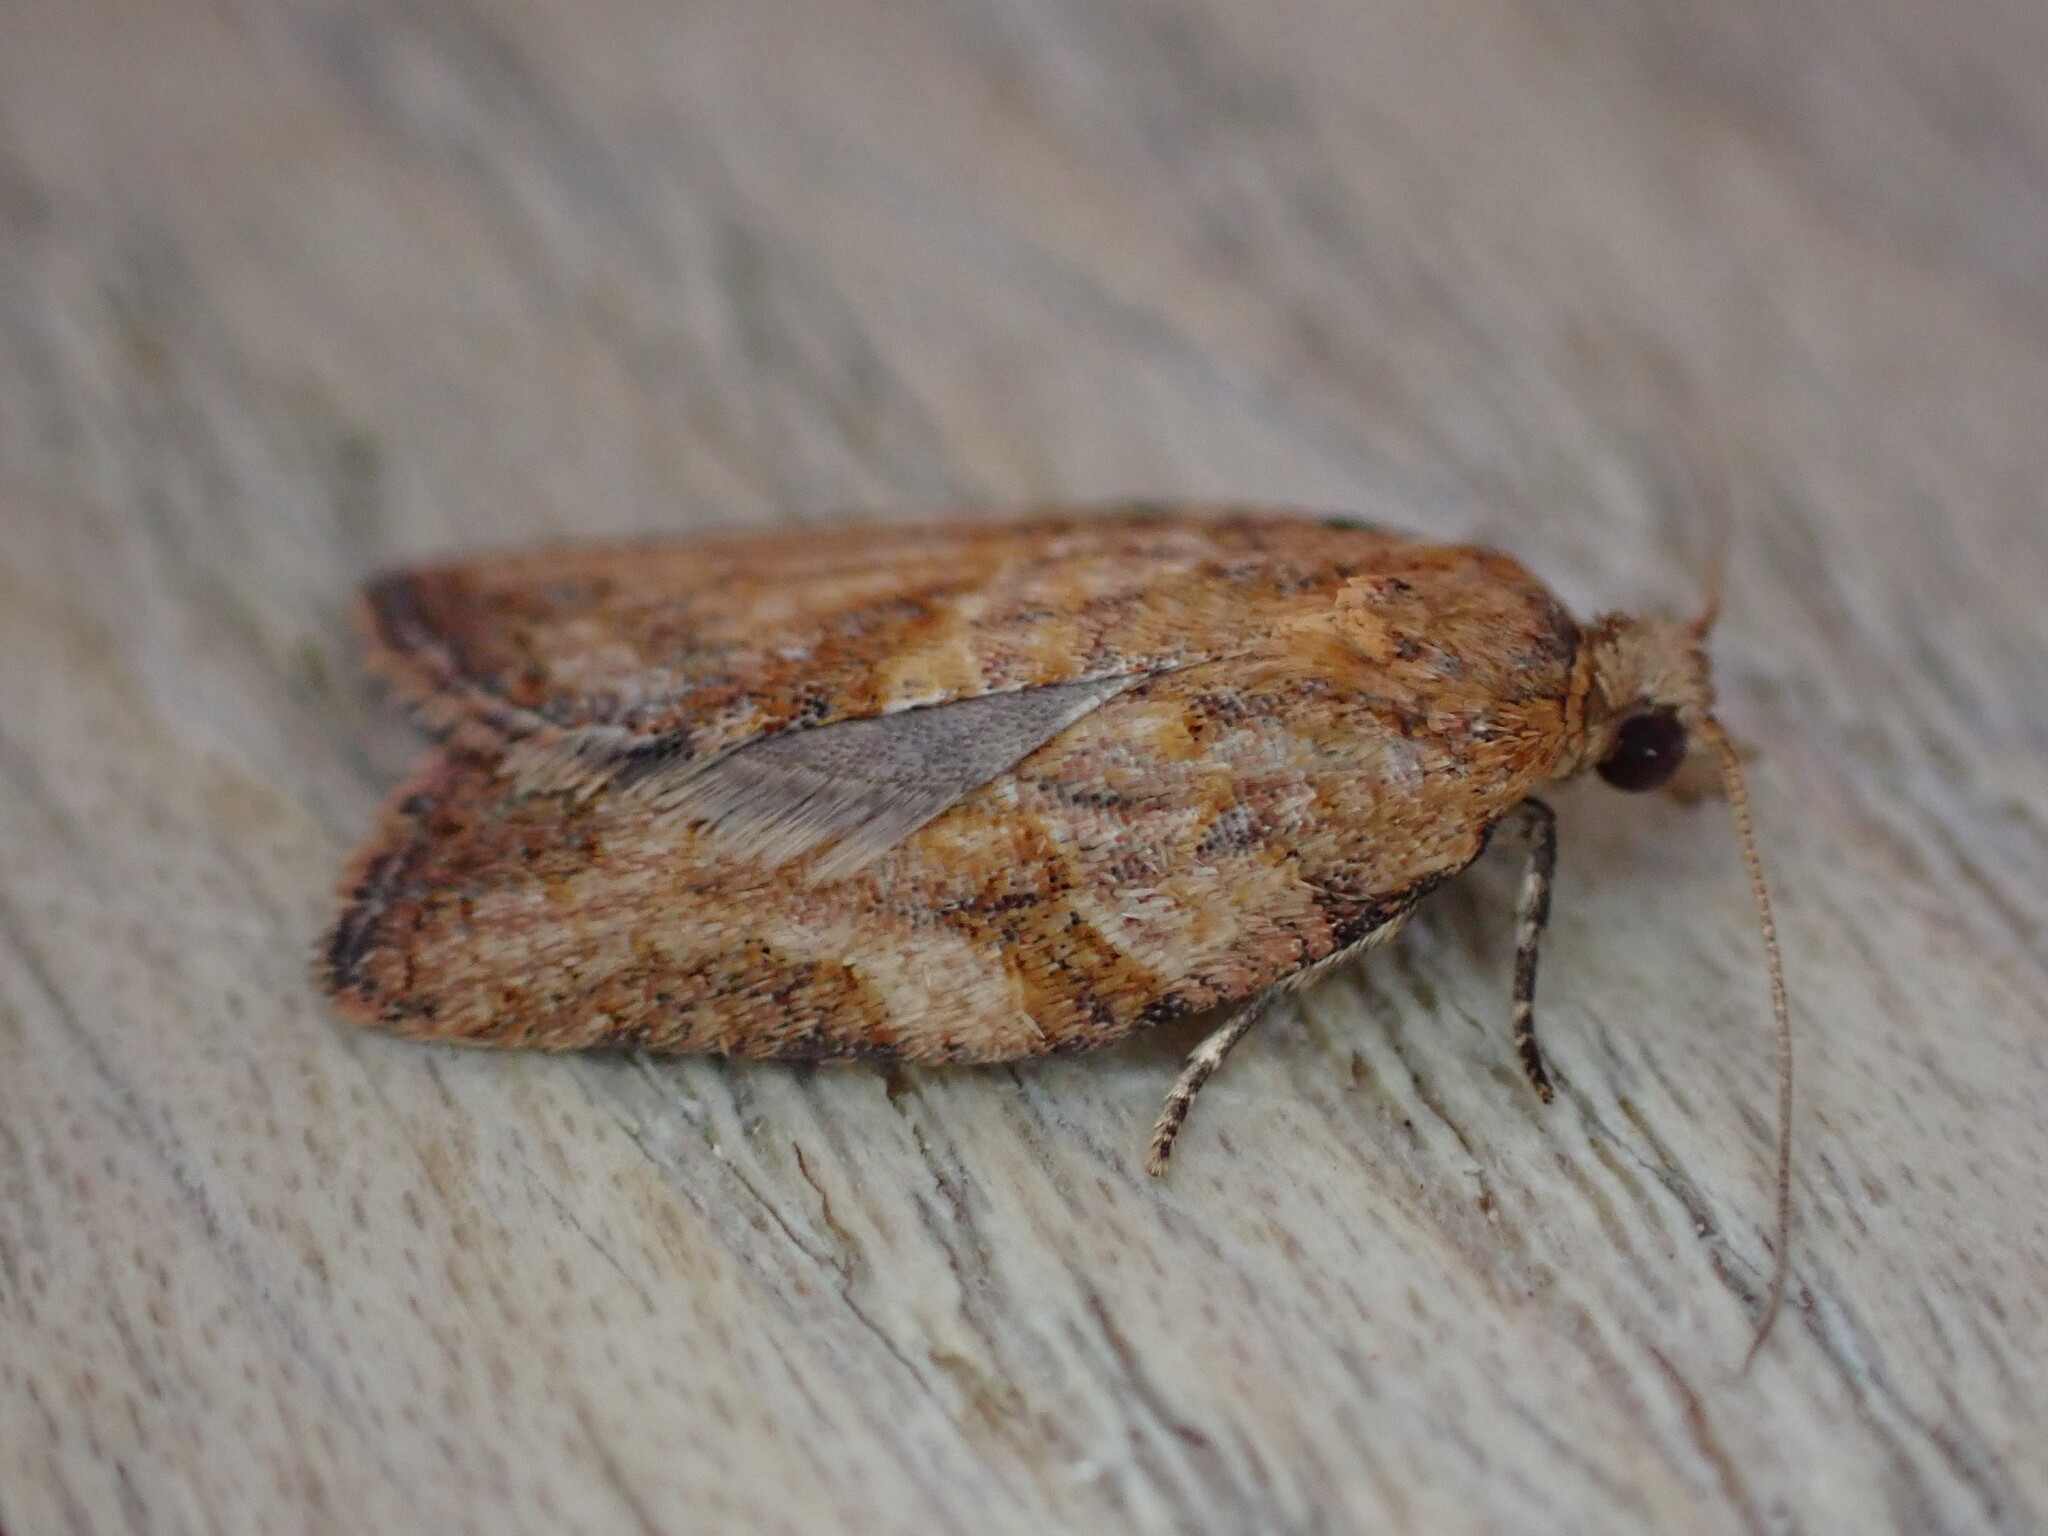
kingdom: Animalia
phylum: Arthropoda
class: Insecta
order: Lepidoptera
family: Tortricidae
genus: Epiphyas
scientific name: Epiphyas postvittana
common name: Light brown apple moth
